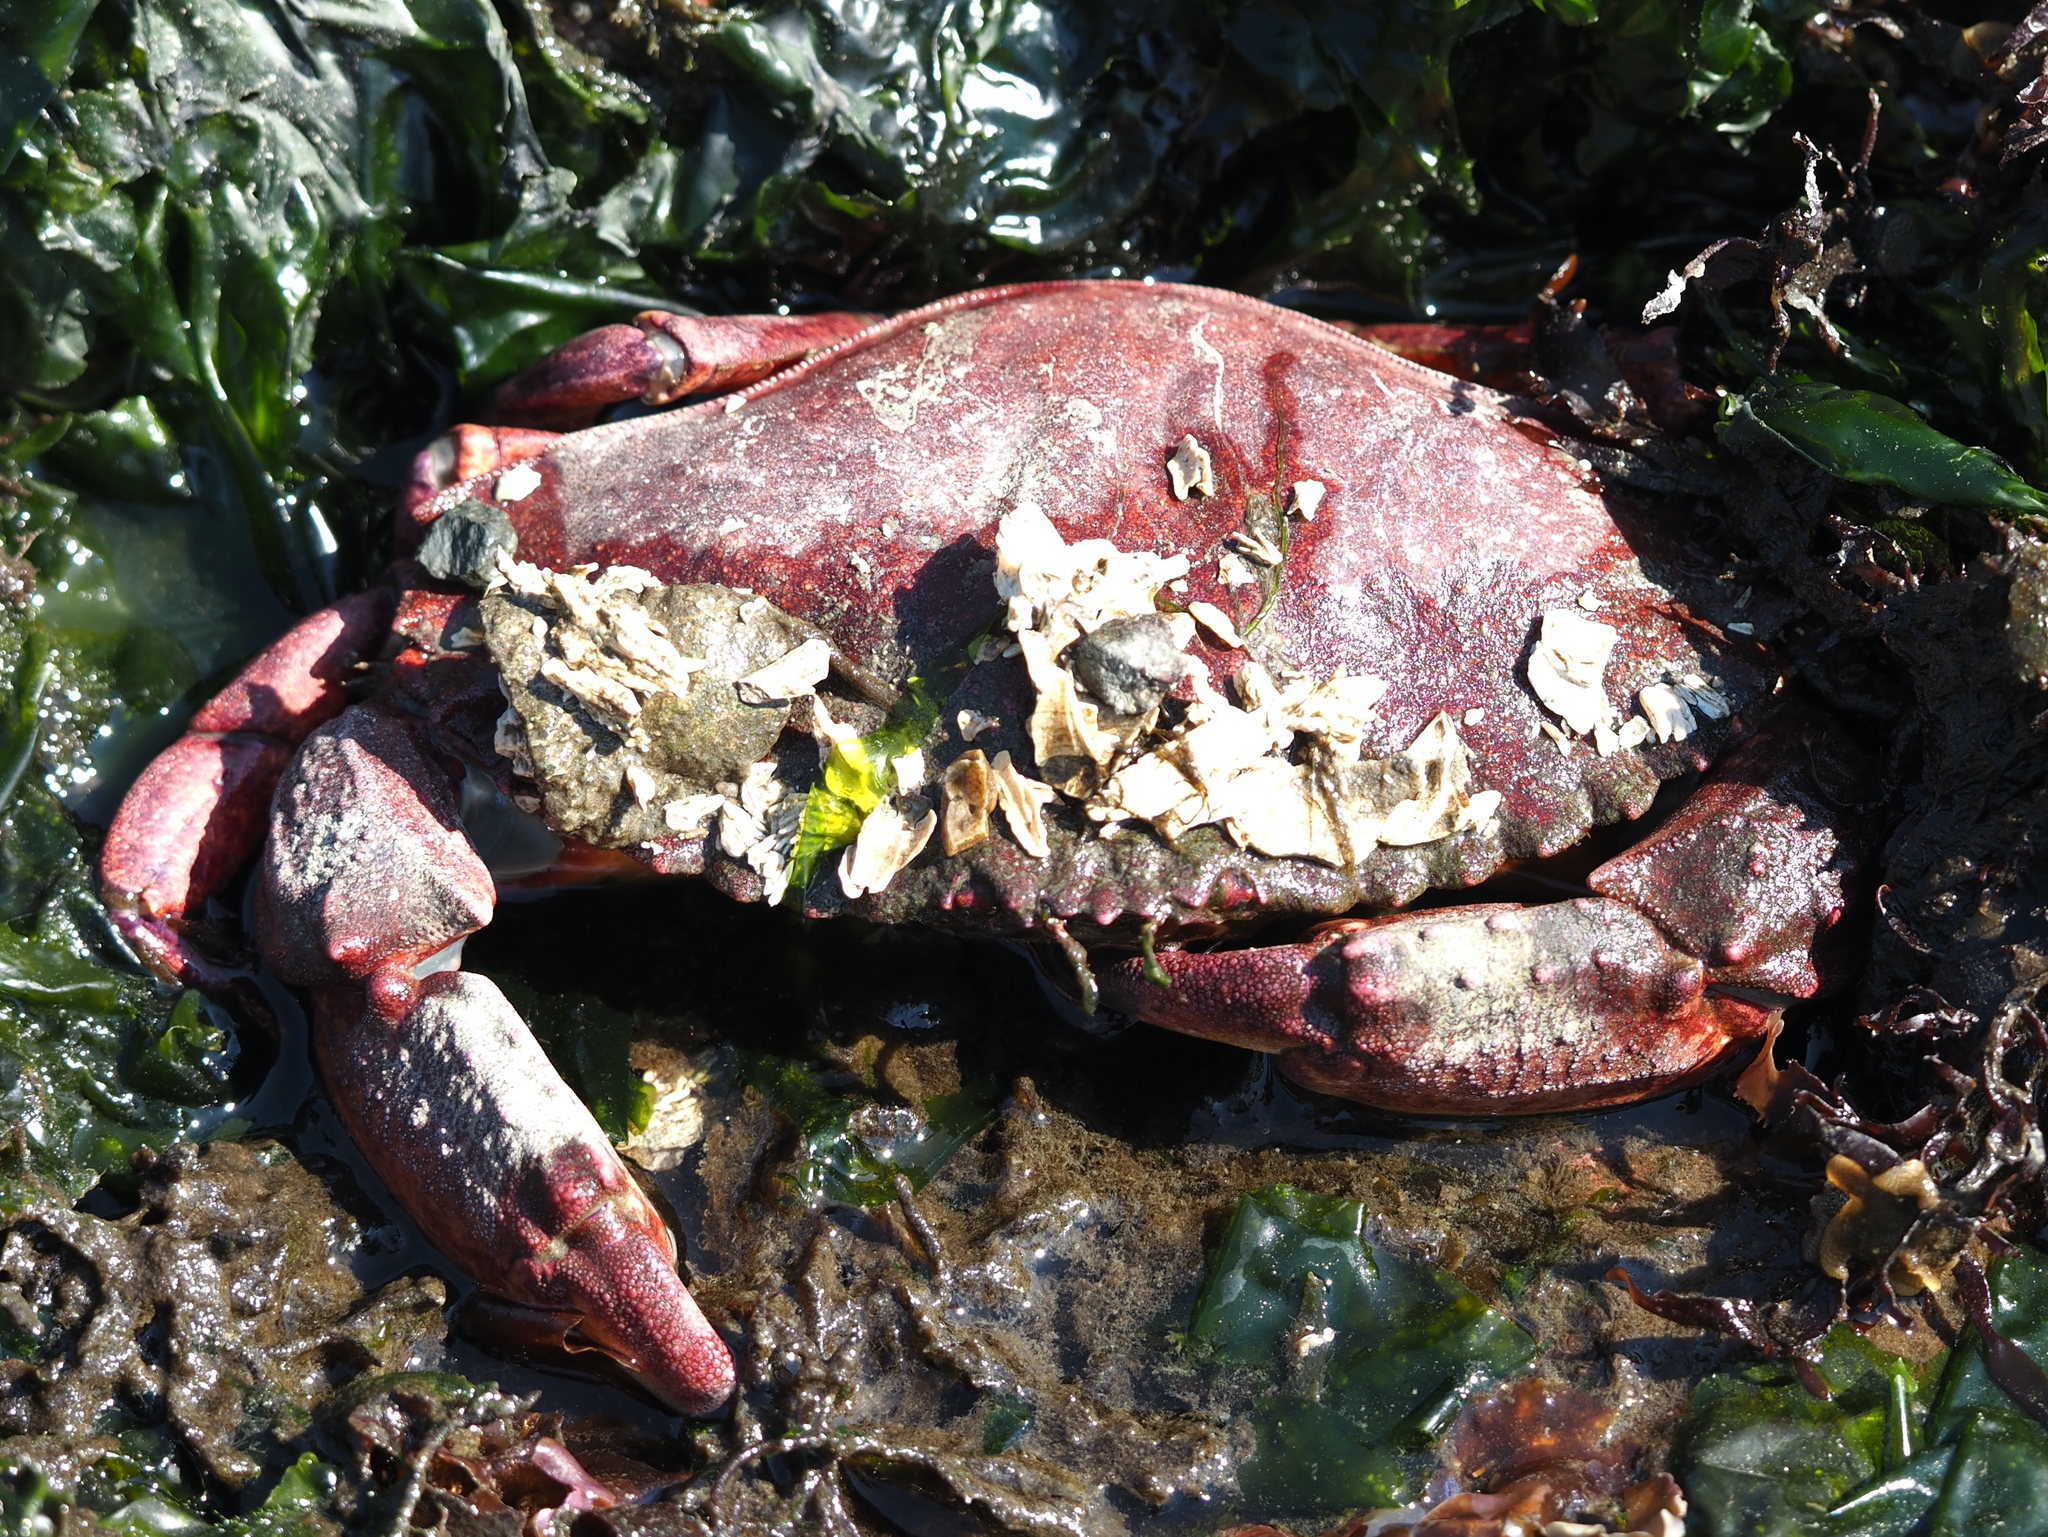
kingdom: Animalia
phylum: Arthropoda
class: Malacostraca
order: Decapoda
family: Cancridae
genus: Cancer
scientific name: Cancer productus
